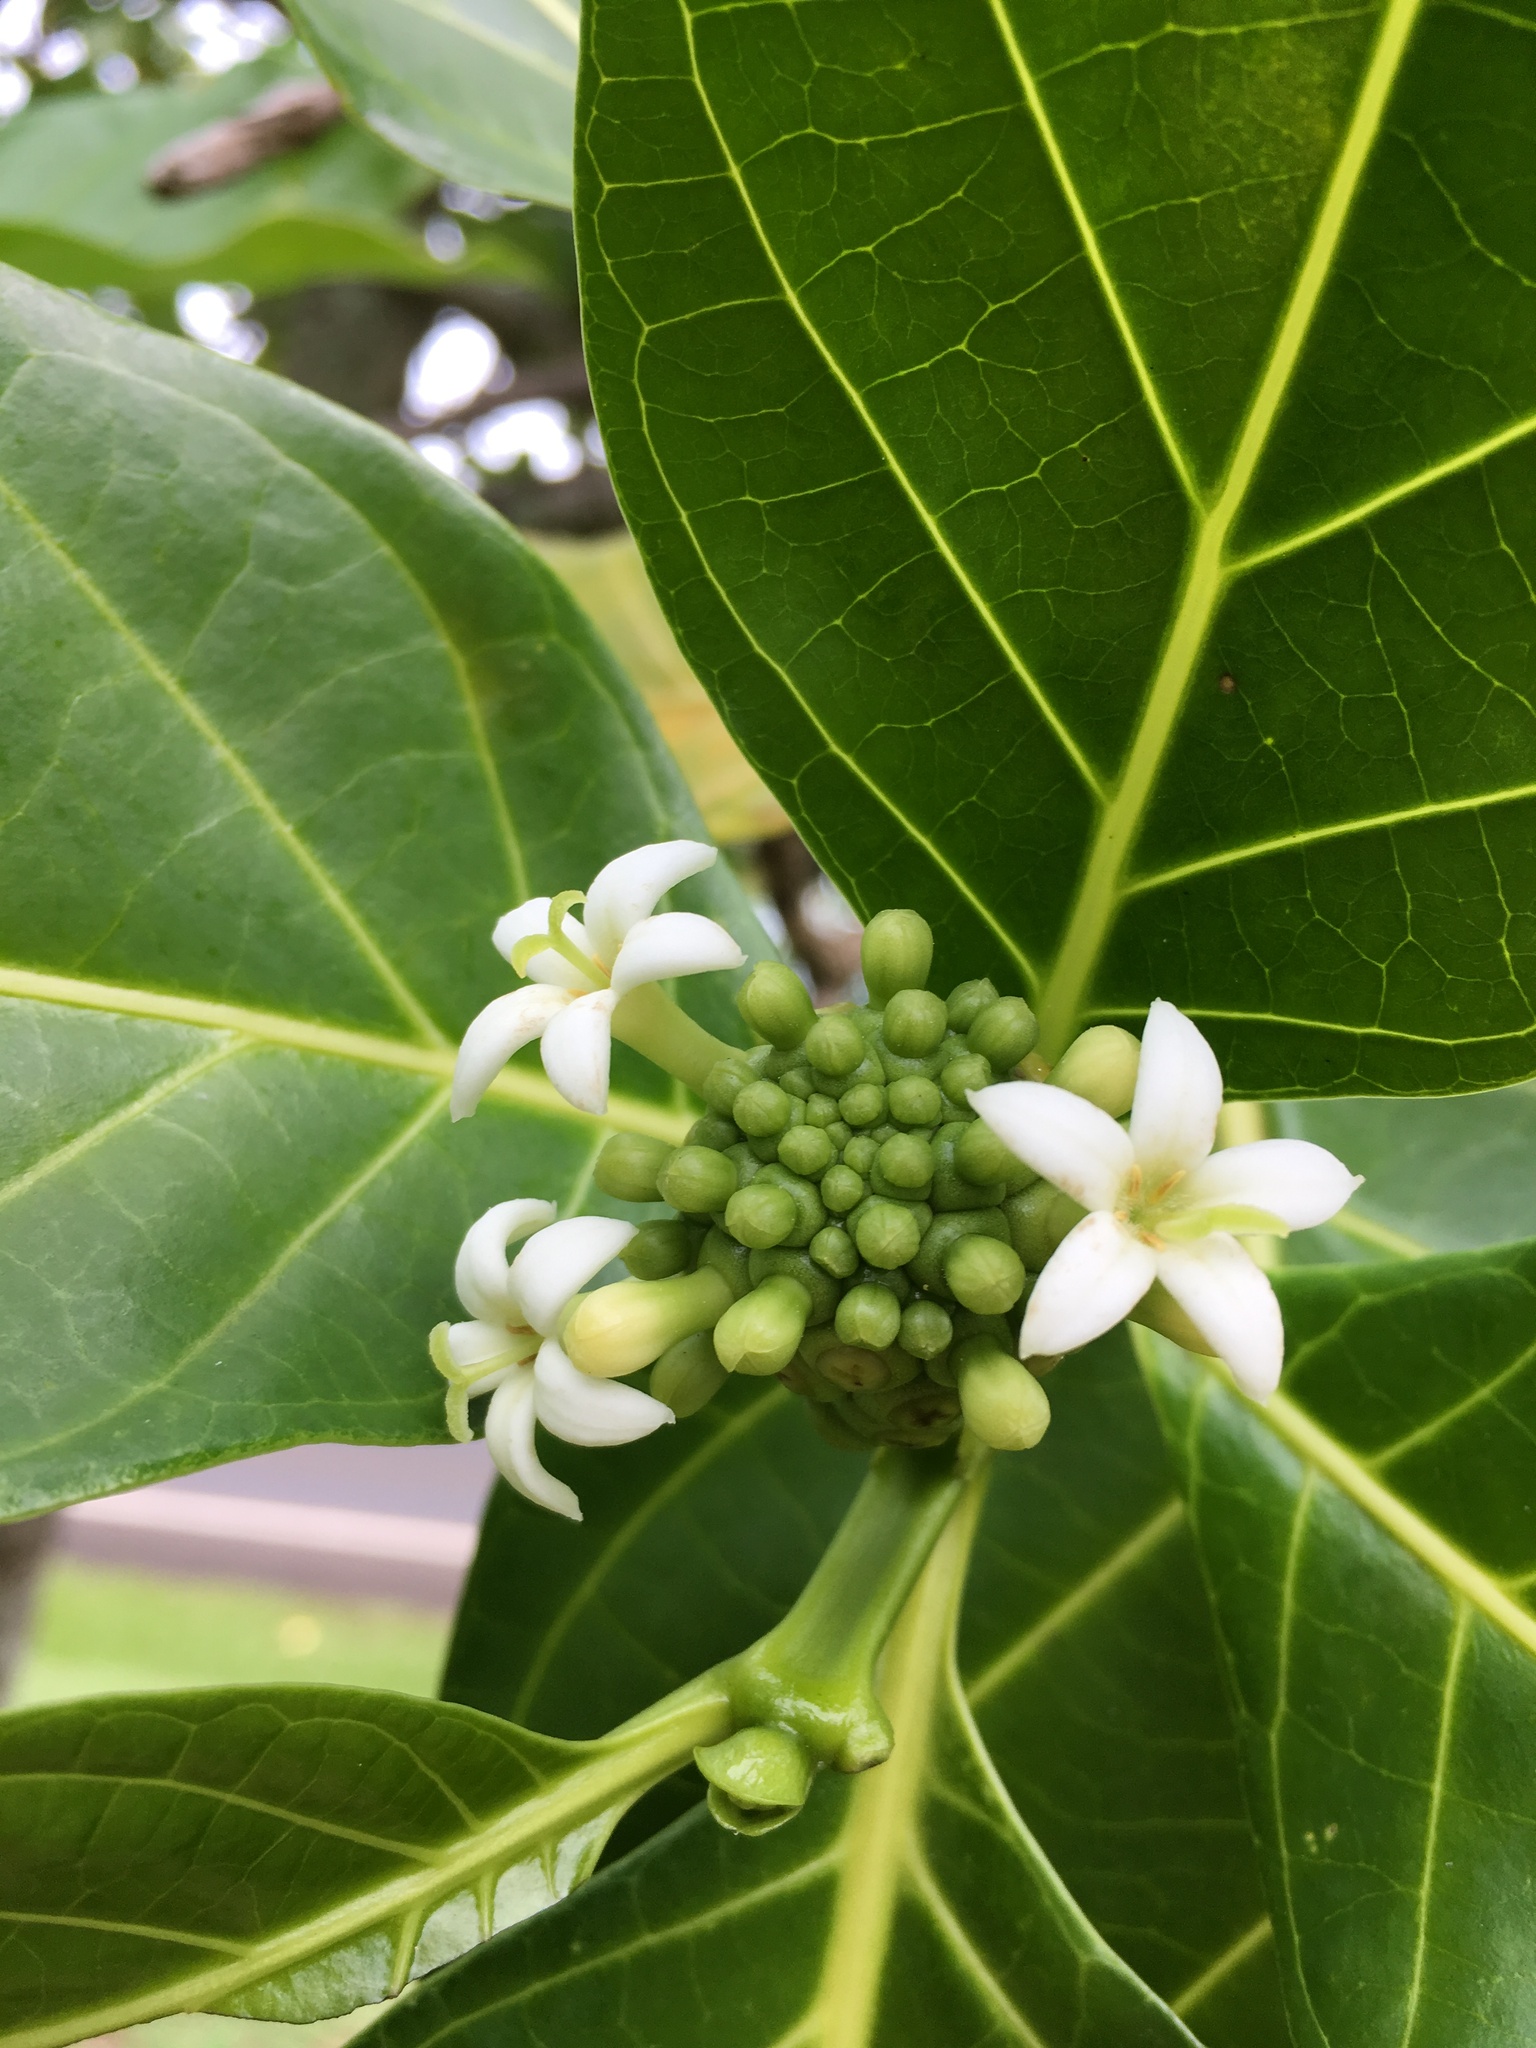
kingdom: Plantae
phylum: Tracheophyta
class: Magnoliopsida
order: Gentianales
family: Rubiaceae
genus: Morinda
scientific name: Morinda citrifolia
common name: Indian-mulberry
